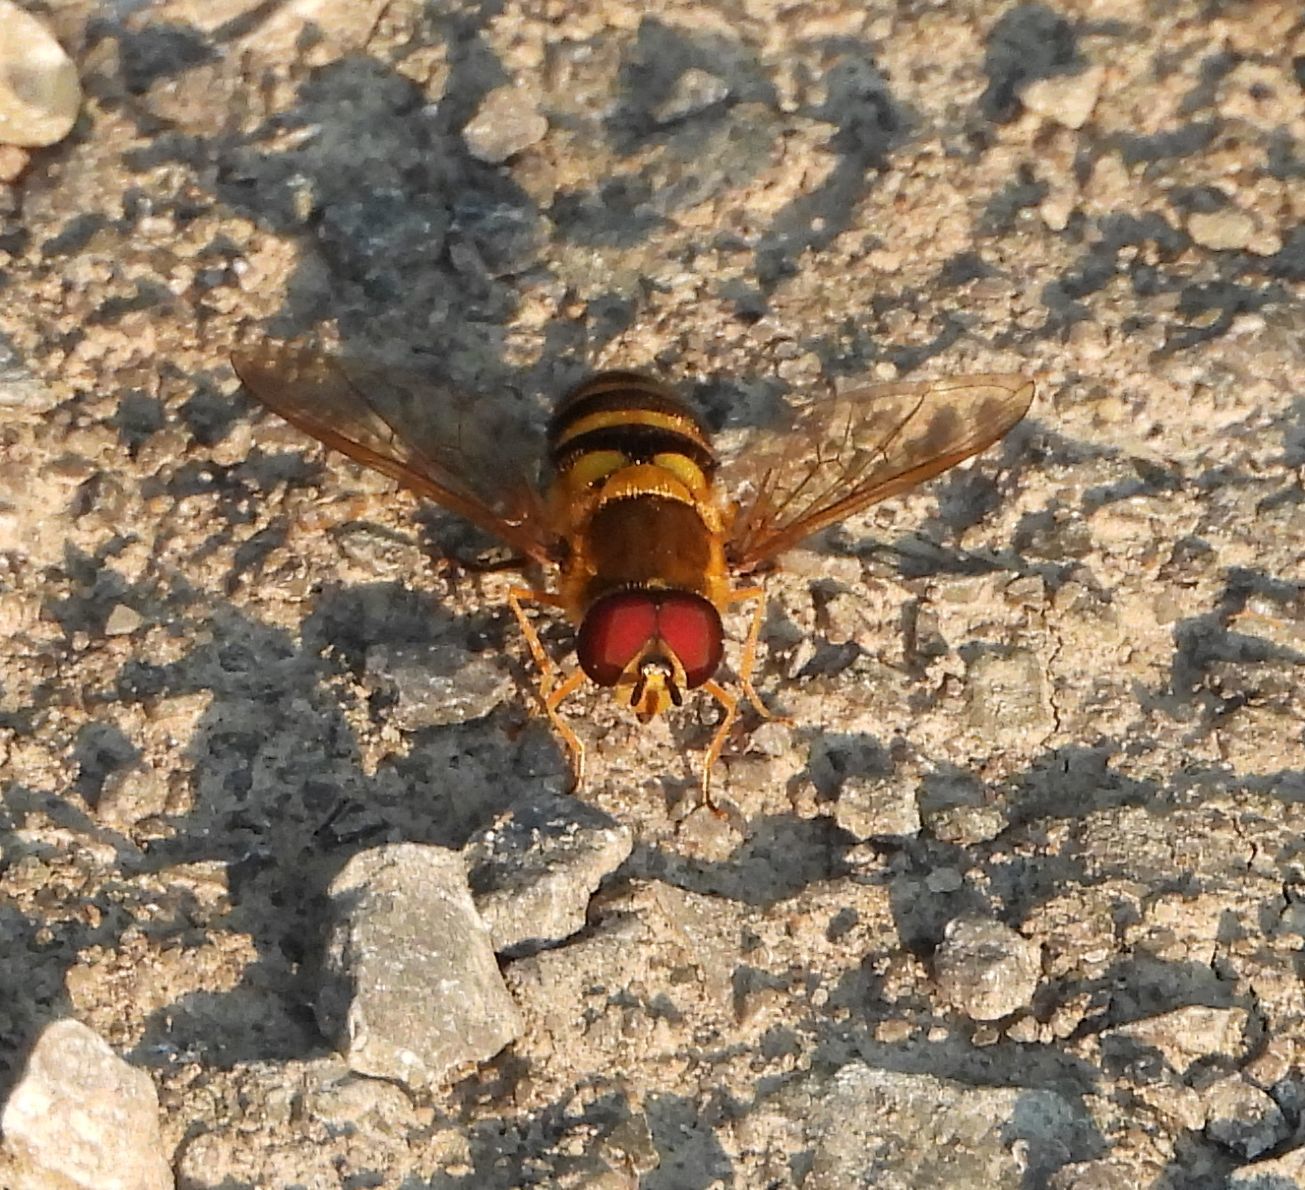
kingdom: Animalia
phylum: Arthropoda
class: Insecta
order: Diptera
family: Syrphidae
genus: Syrphus
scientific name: Syrphus
